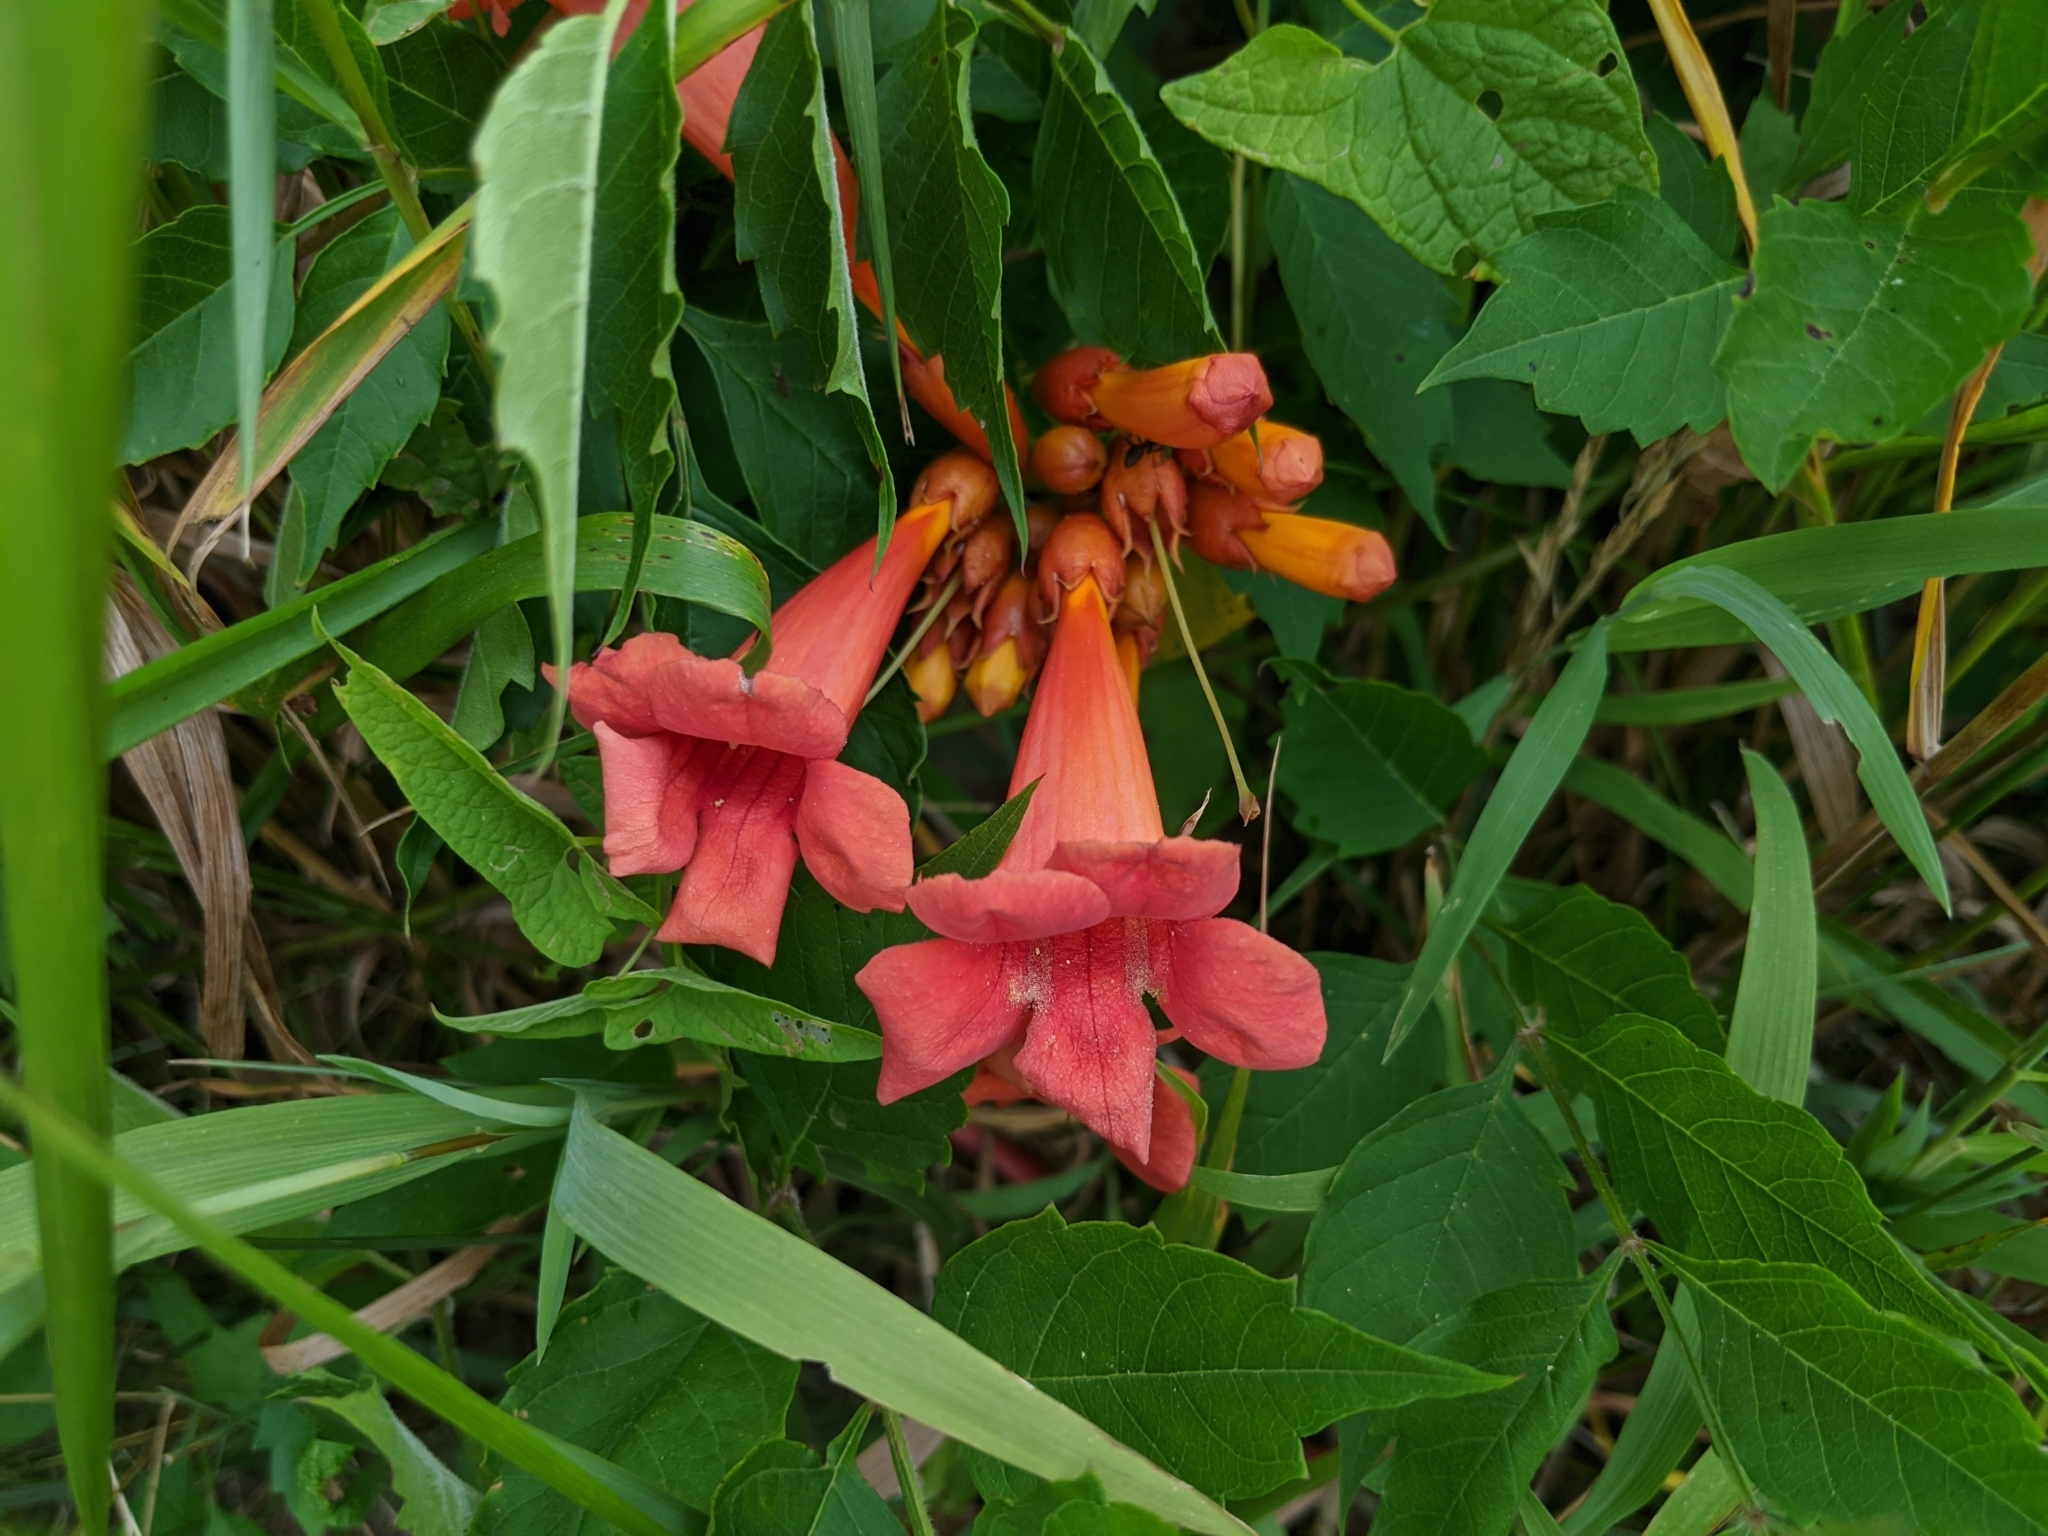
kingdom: Plantae
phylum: Tracheophyta
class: Magnoliopsida
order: Lamiales
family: Bignoniaceae
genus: Campsis
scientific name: Campsis radicans
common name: Trumpet-creeper
